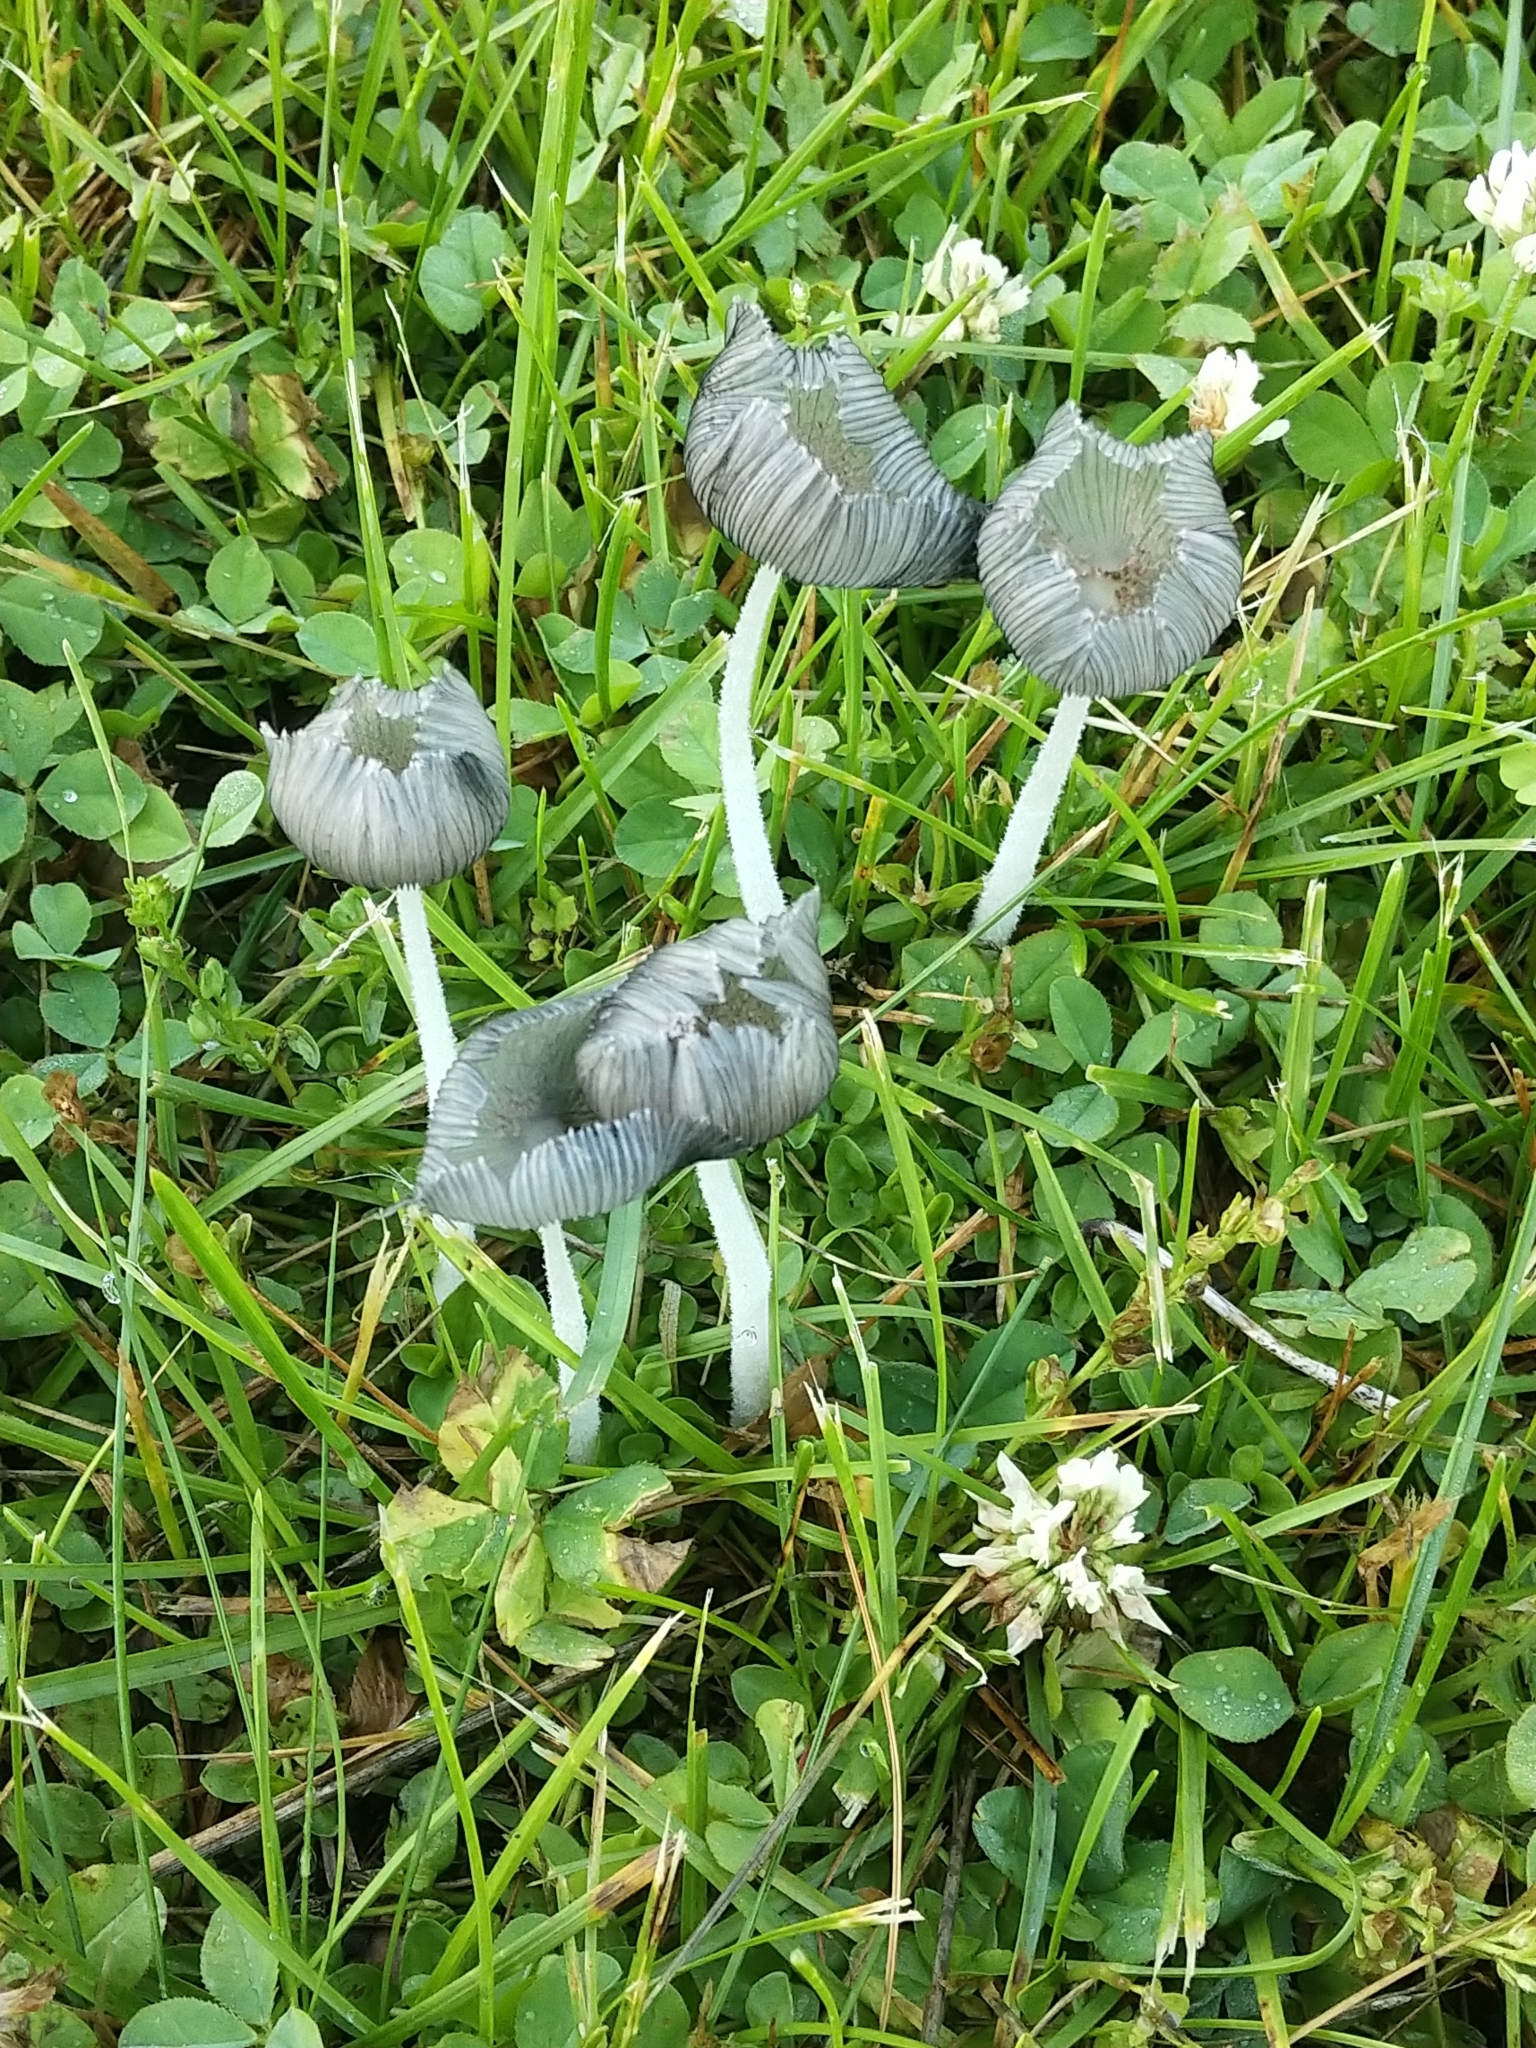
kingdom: Fungi
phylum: Basidiomycota
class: Agaricomycetes
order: Agaricales
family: Psathyrellaceae
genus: Coprinopsis
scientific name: Coprinopsis lagopus
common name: Hare'sfoot inkcap
